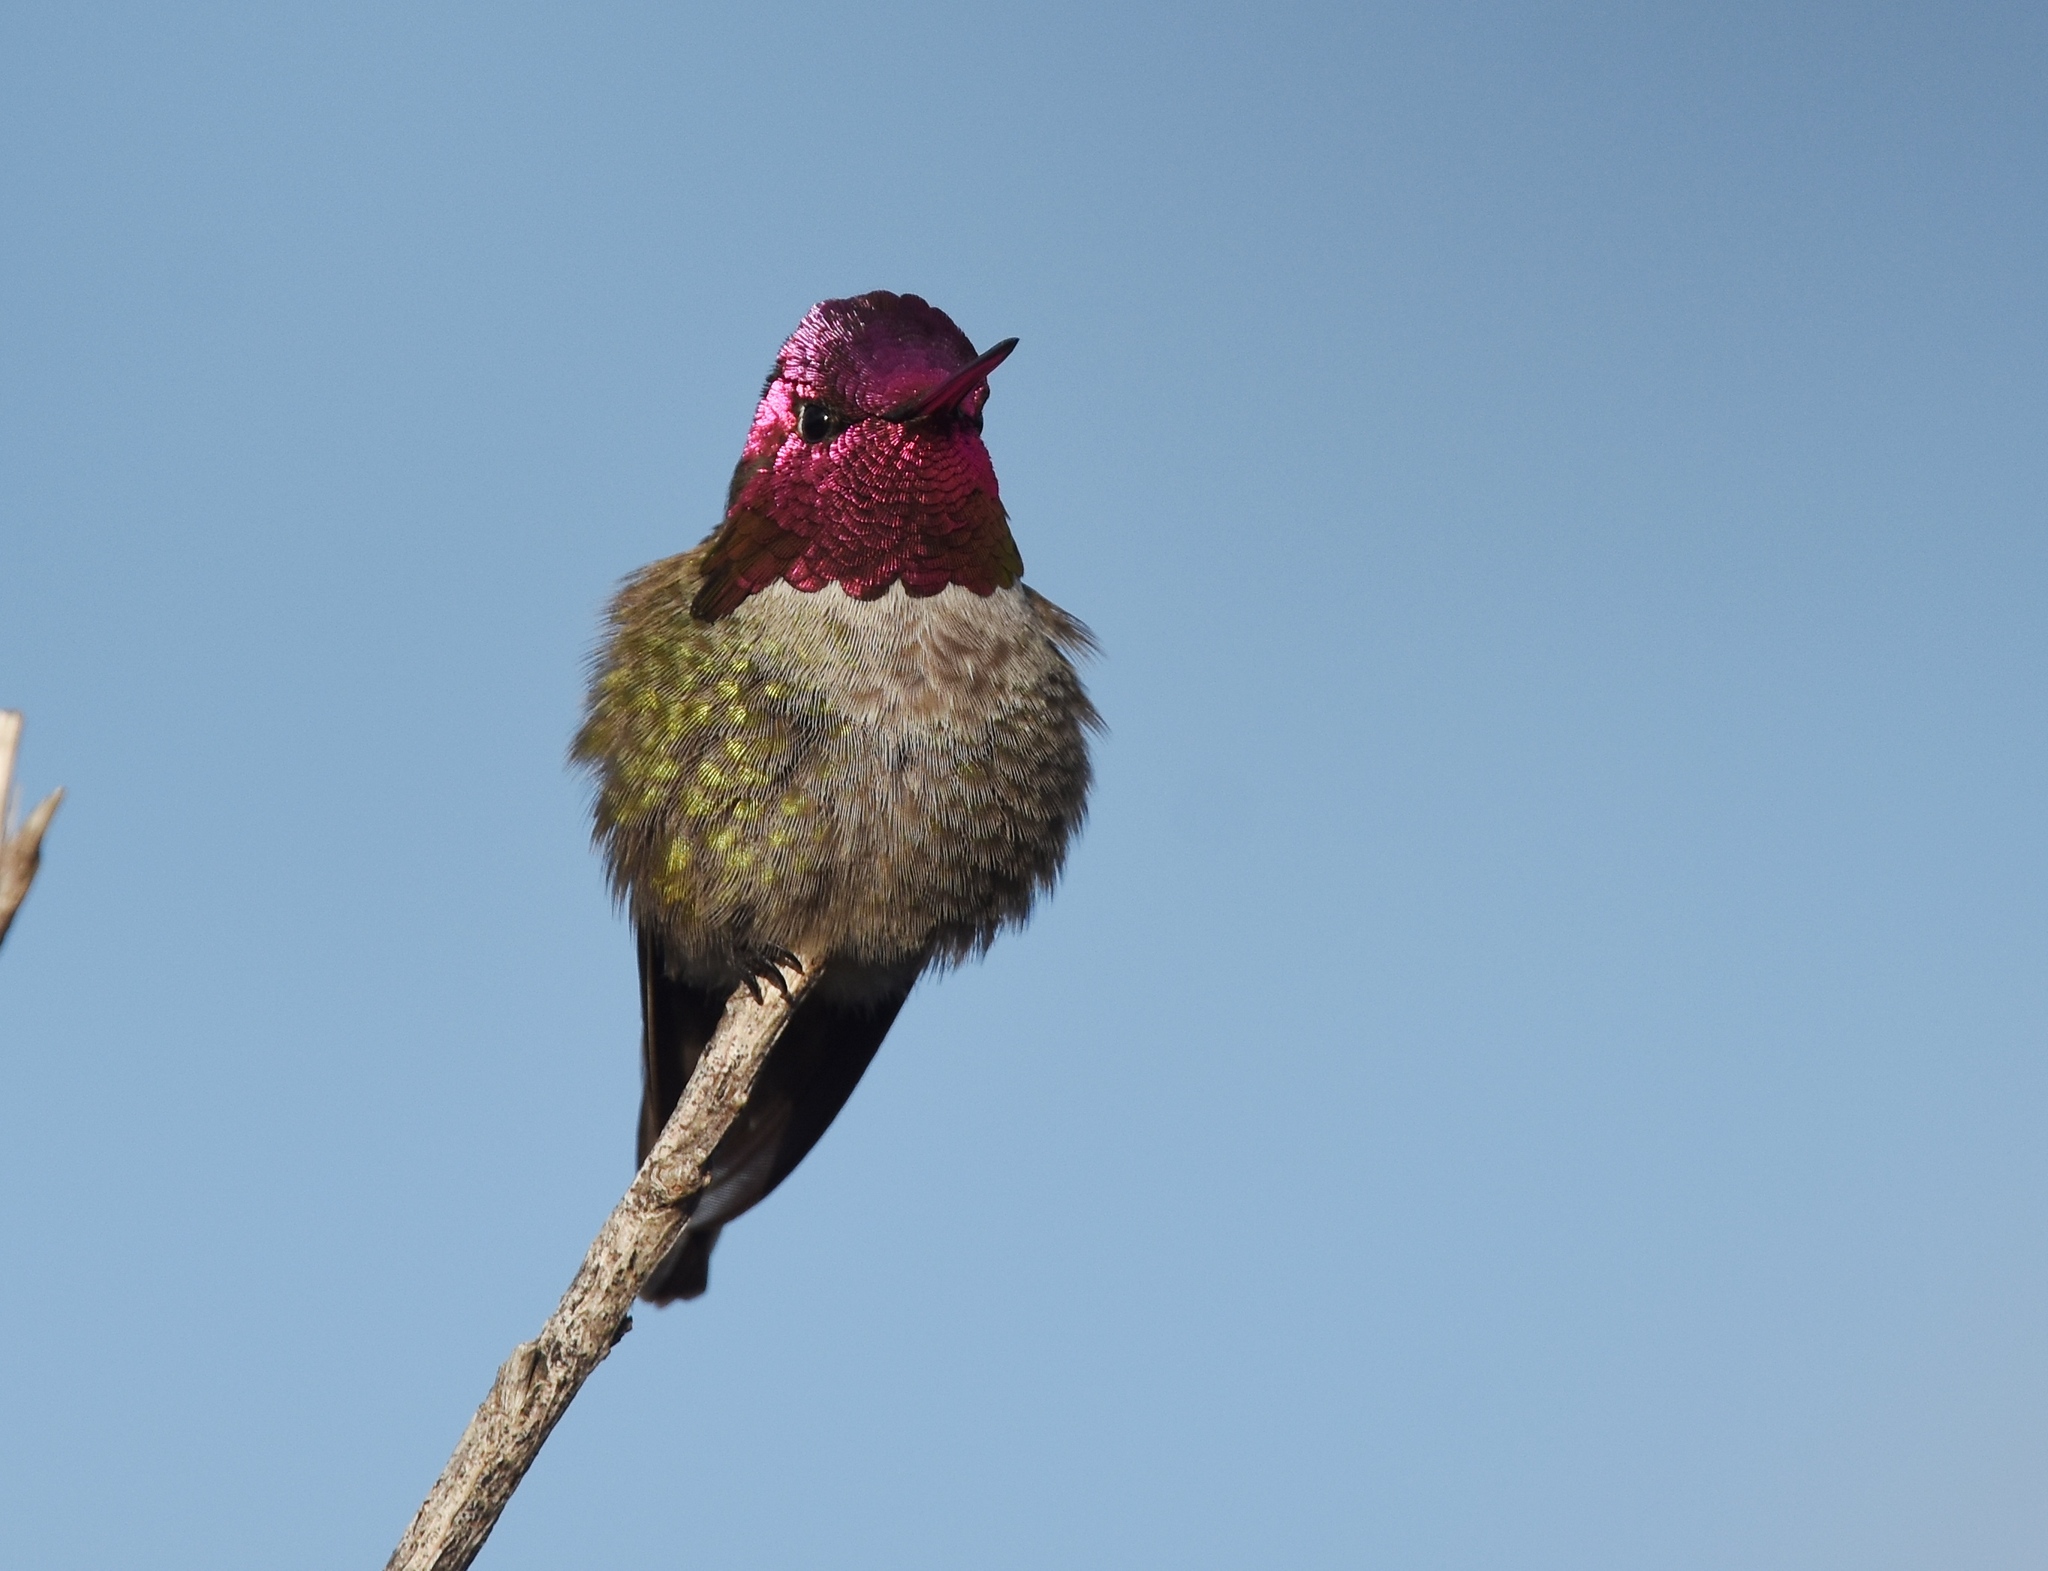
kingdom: Animalia
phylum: Chordata
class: Aves
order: Apodiformes
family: Trochilidae
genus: Calypte
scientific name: Calypte anna
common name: Anna's hummingbird
